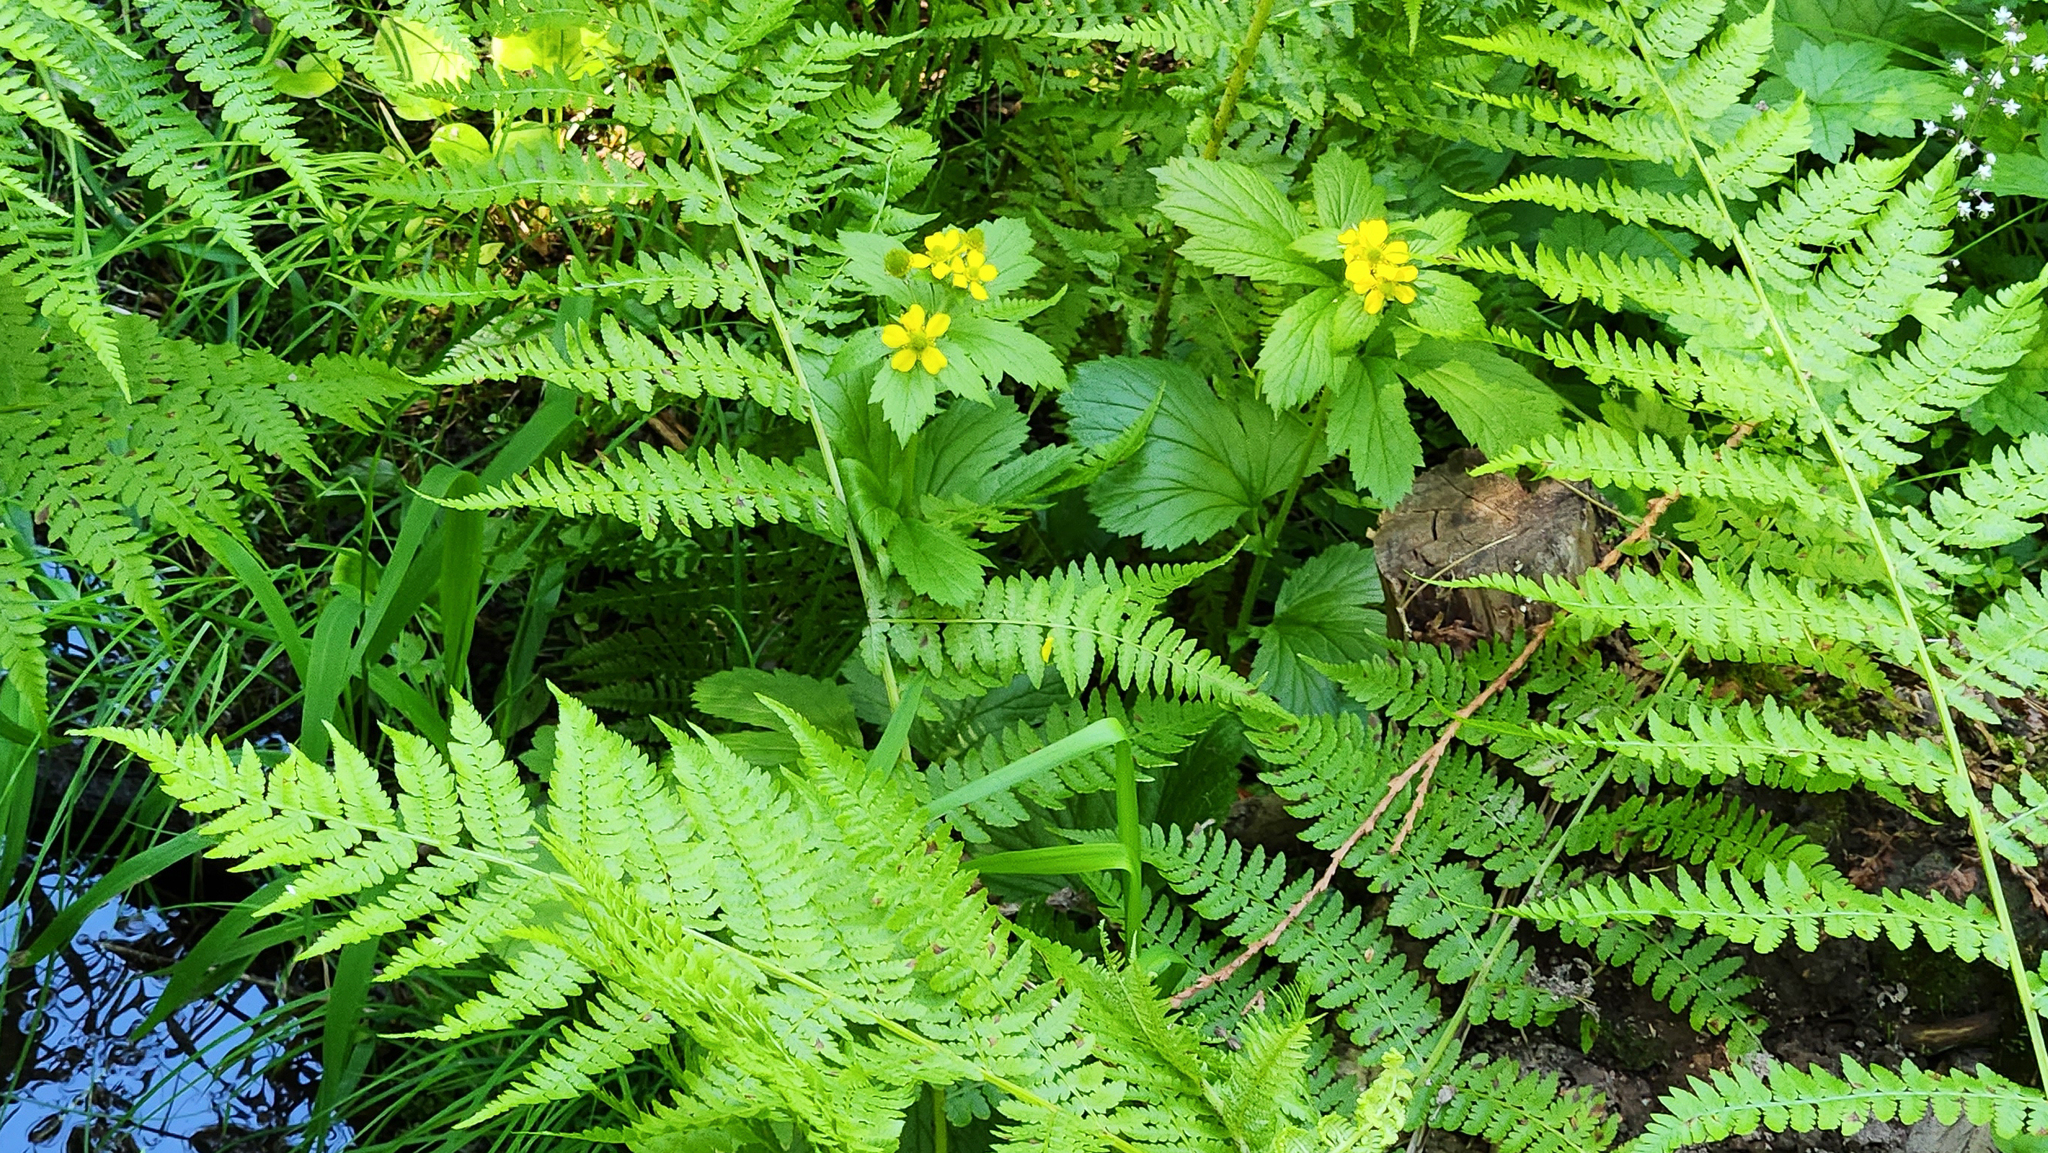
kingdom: Plantae
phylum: Tracheophyta
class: Magnoliopsida
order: Rosales
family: Rosaceae
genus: Geum
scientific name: Geum macrophyllum
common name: Large-leaved avens
